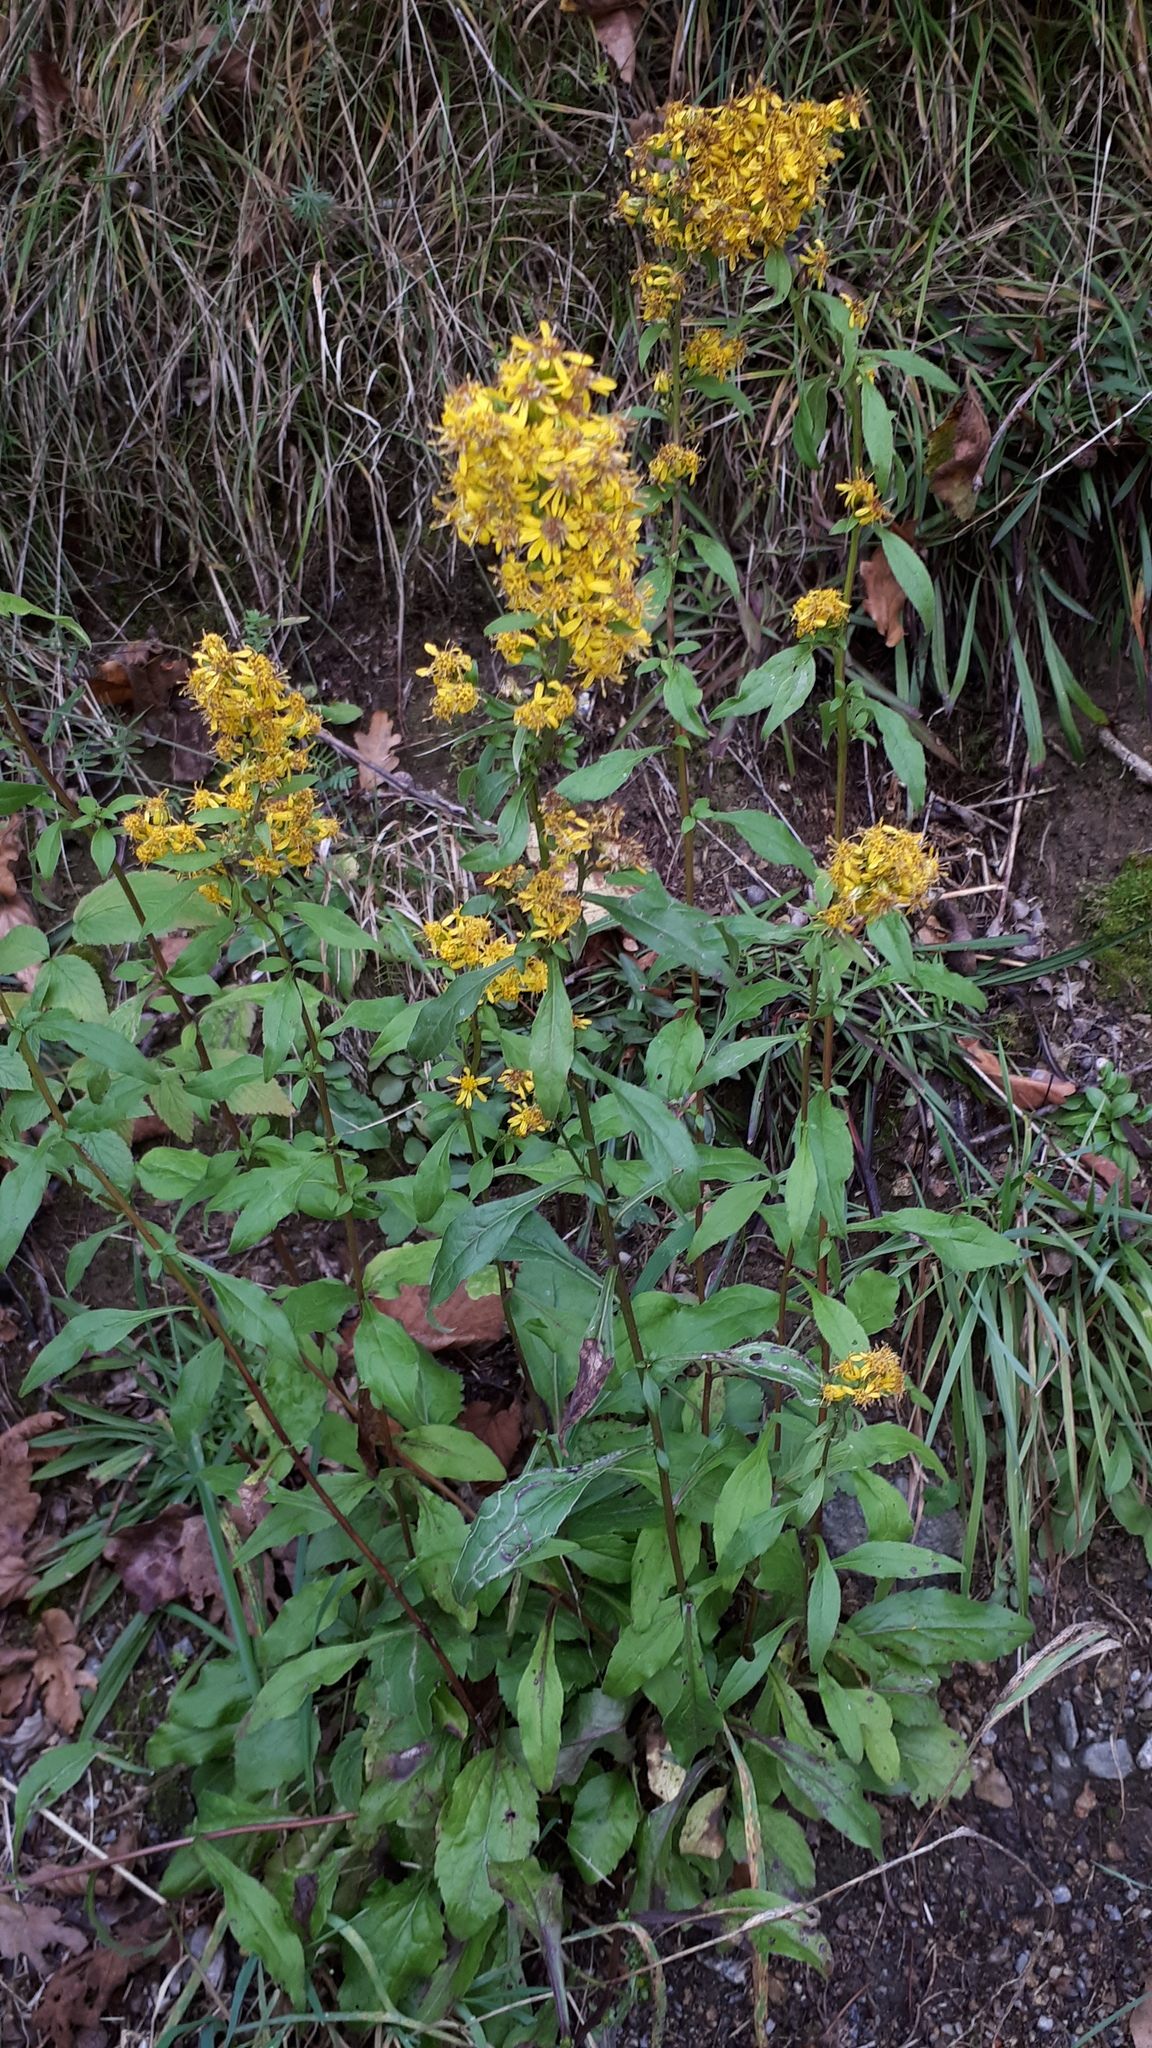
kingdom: Plantae
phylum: Tracheophyta
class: Magnoliopsida
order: Asterales
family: Asteraceae
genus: Solidago
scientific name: Solidago virgaurea
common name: Goldenrod
